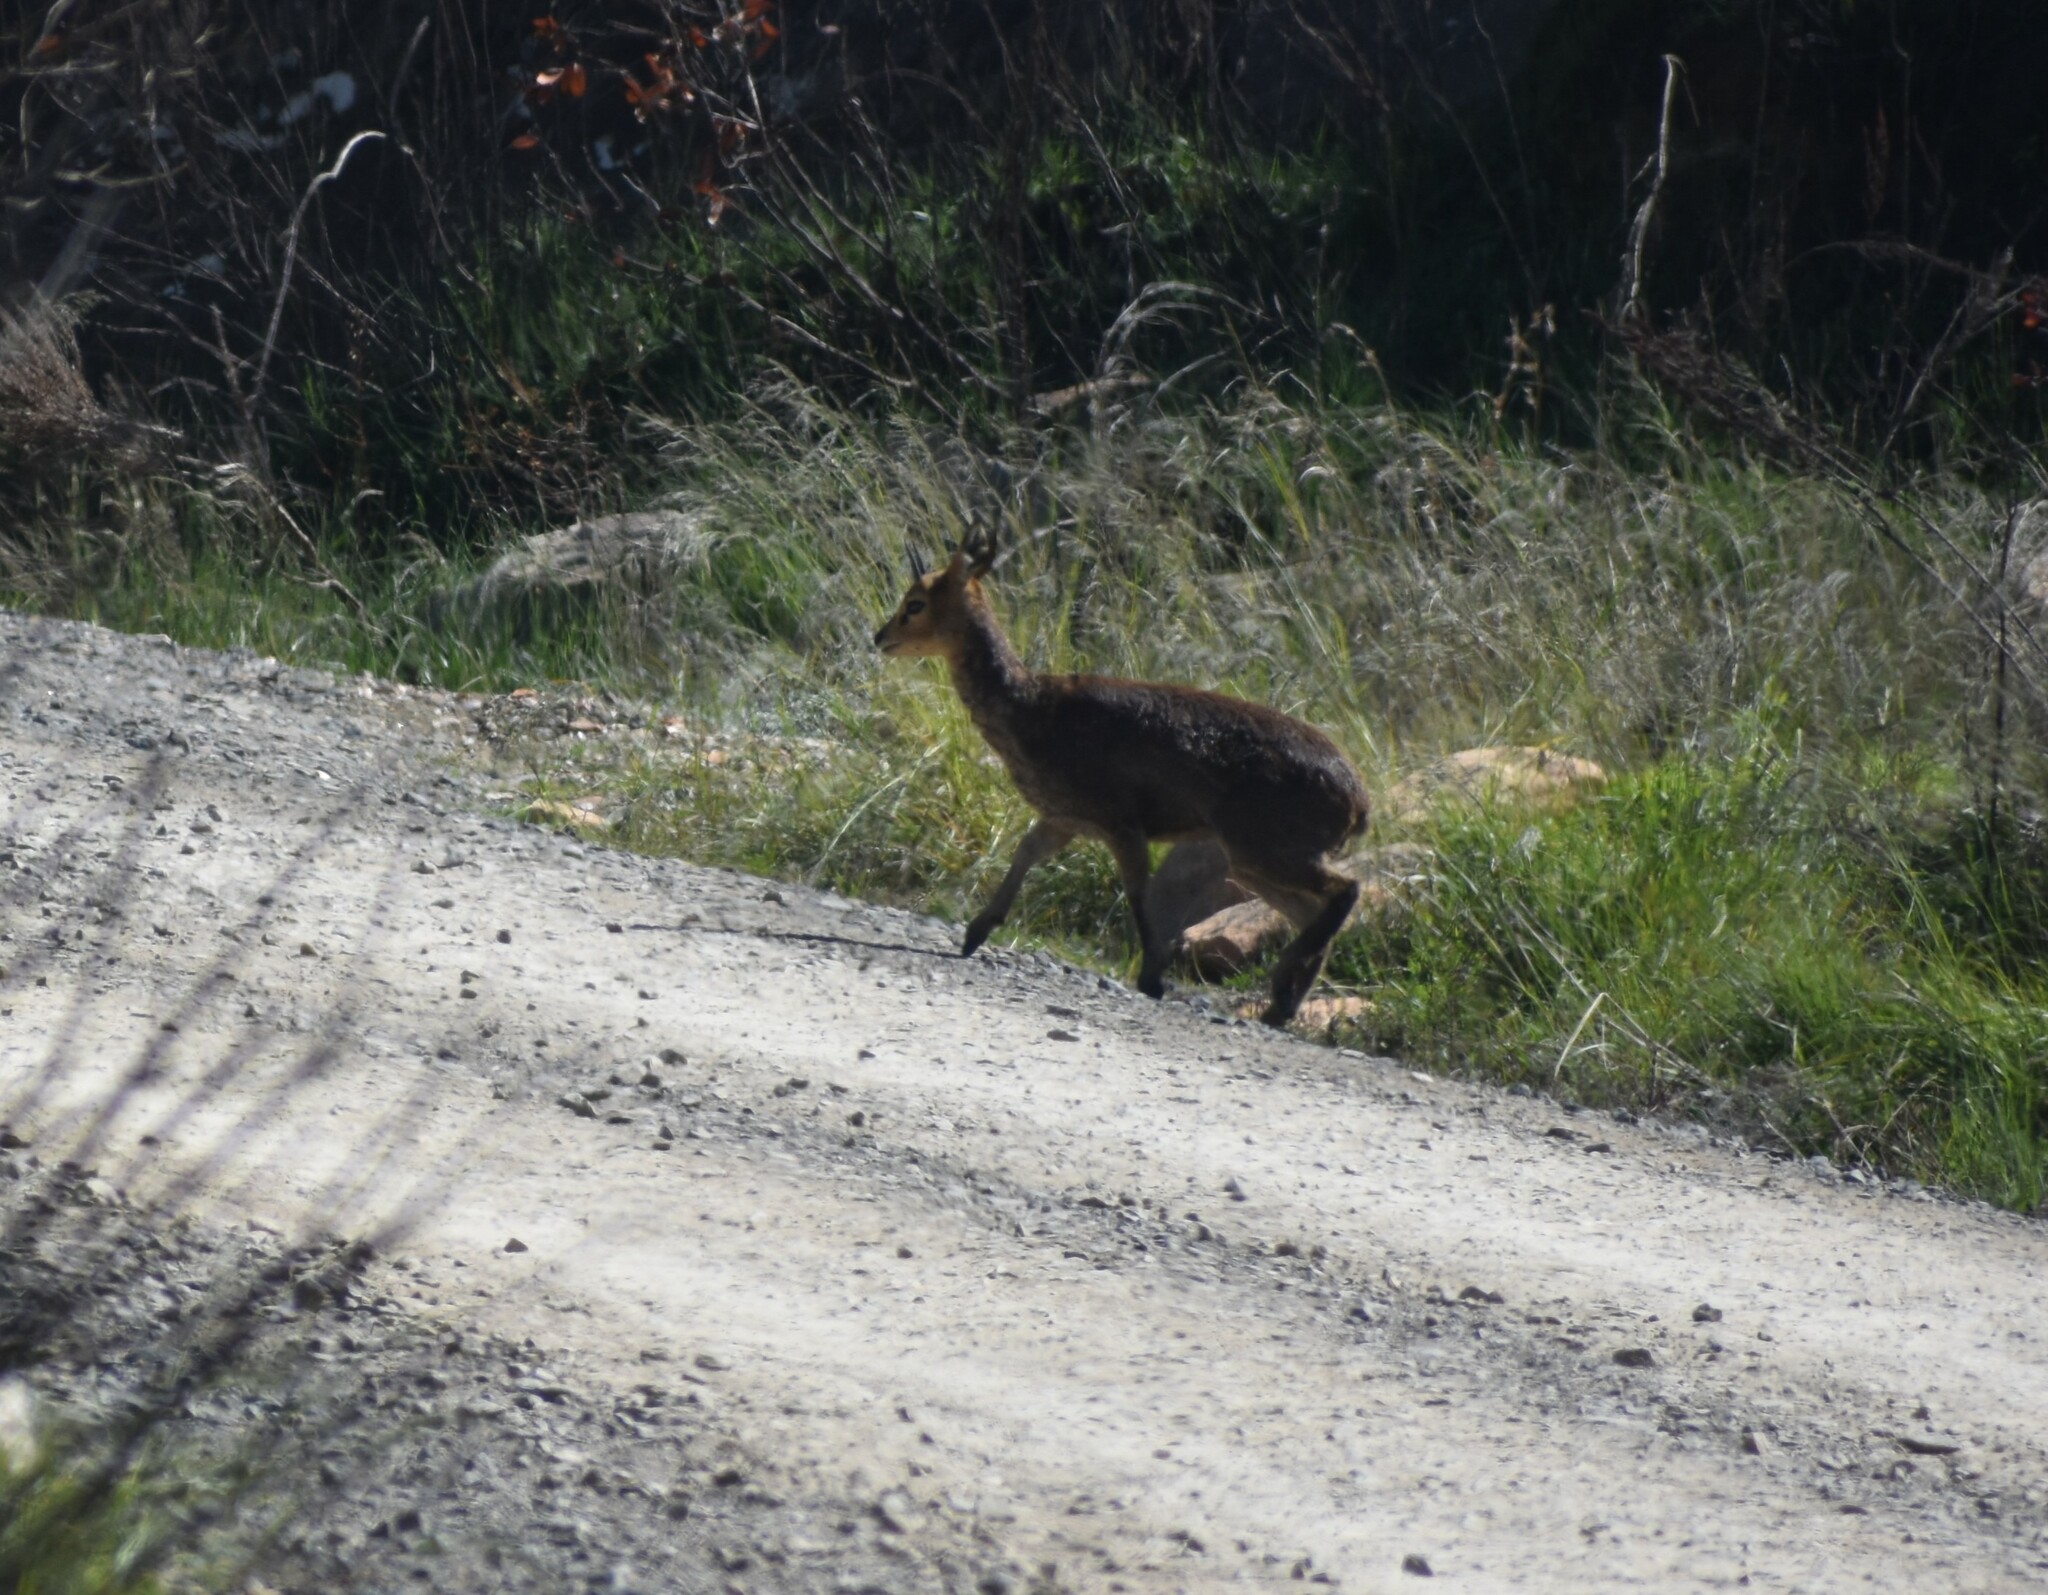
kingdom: Animalia
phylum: Chordata
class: Mammalia
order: Artiodactyla
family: Bovidae
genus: Oreotragus
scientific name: Oreotragus oreotragus
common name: Klipspringer
